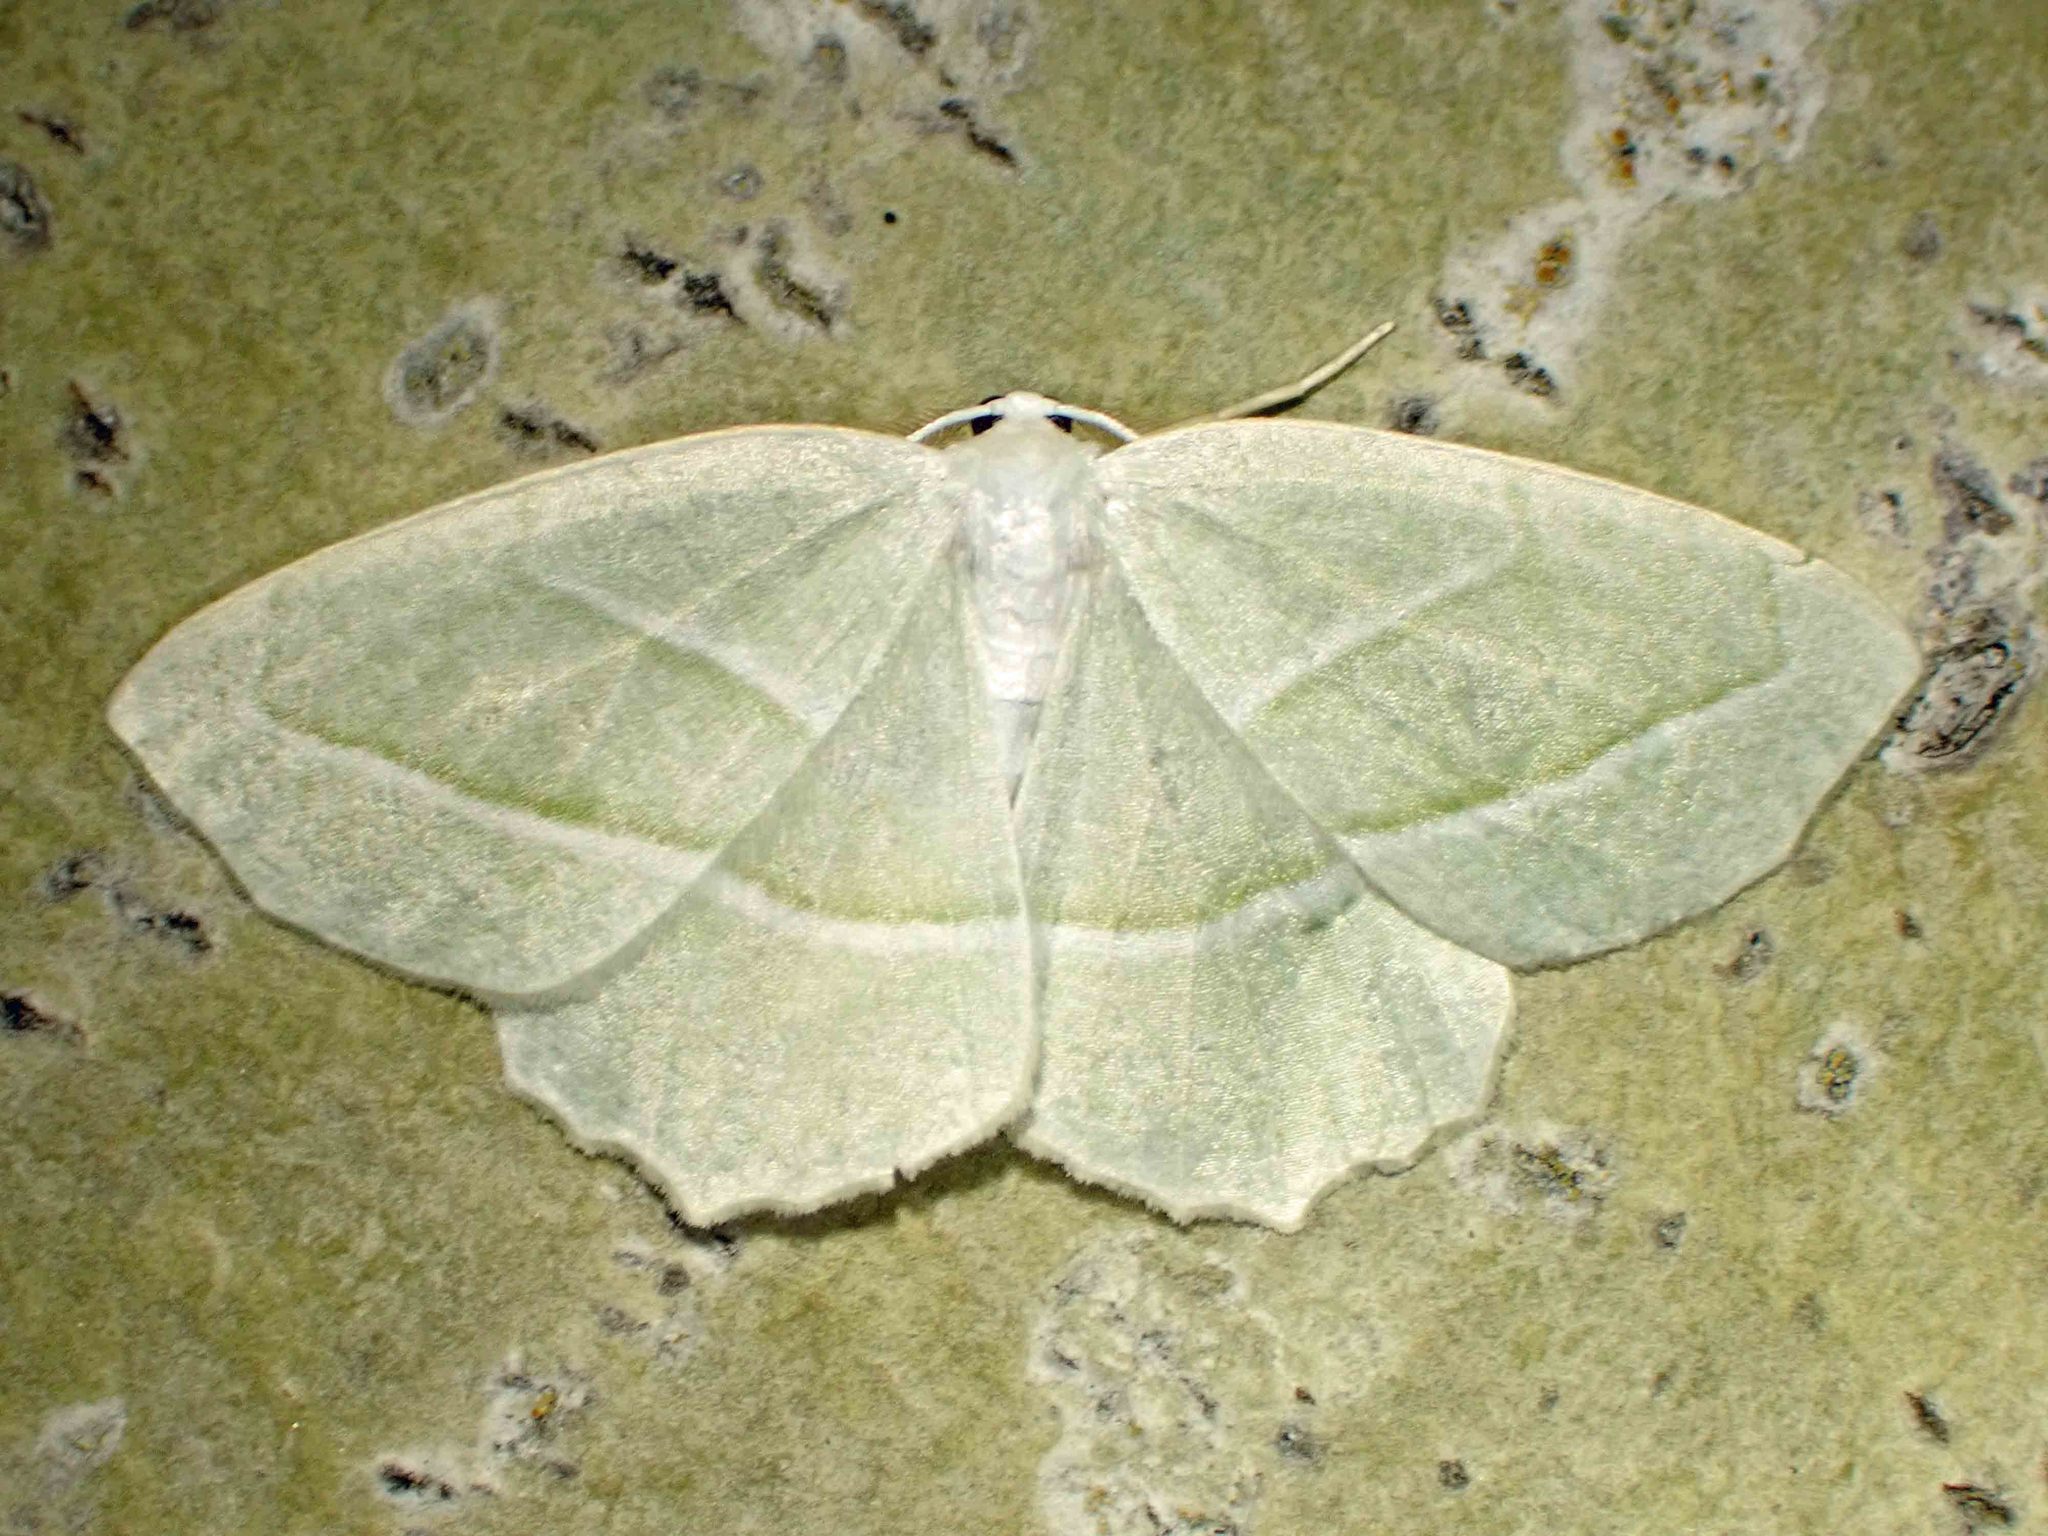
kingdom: Animalia
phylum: Arthropoda
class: Insecta
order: Lepidoptera
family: Geometridae
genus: Campaea
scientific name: Campaea perlata
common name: Fringed looper
